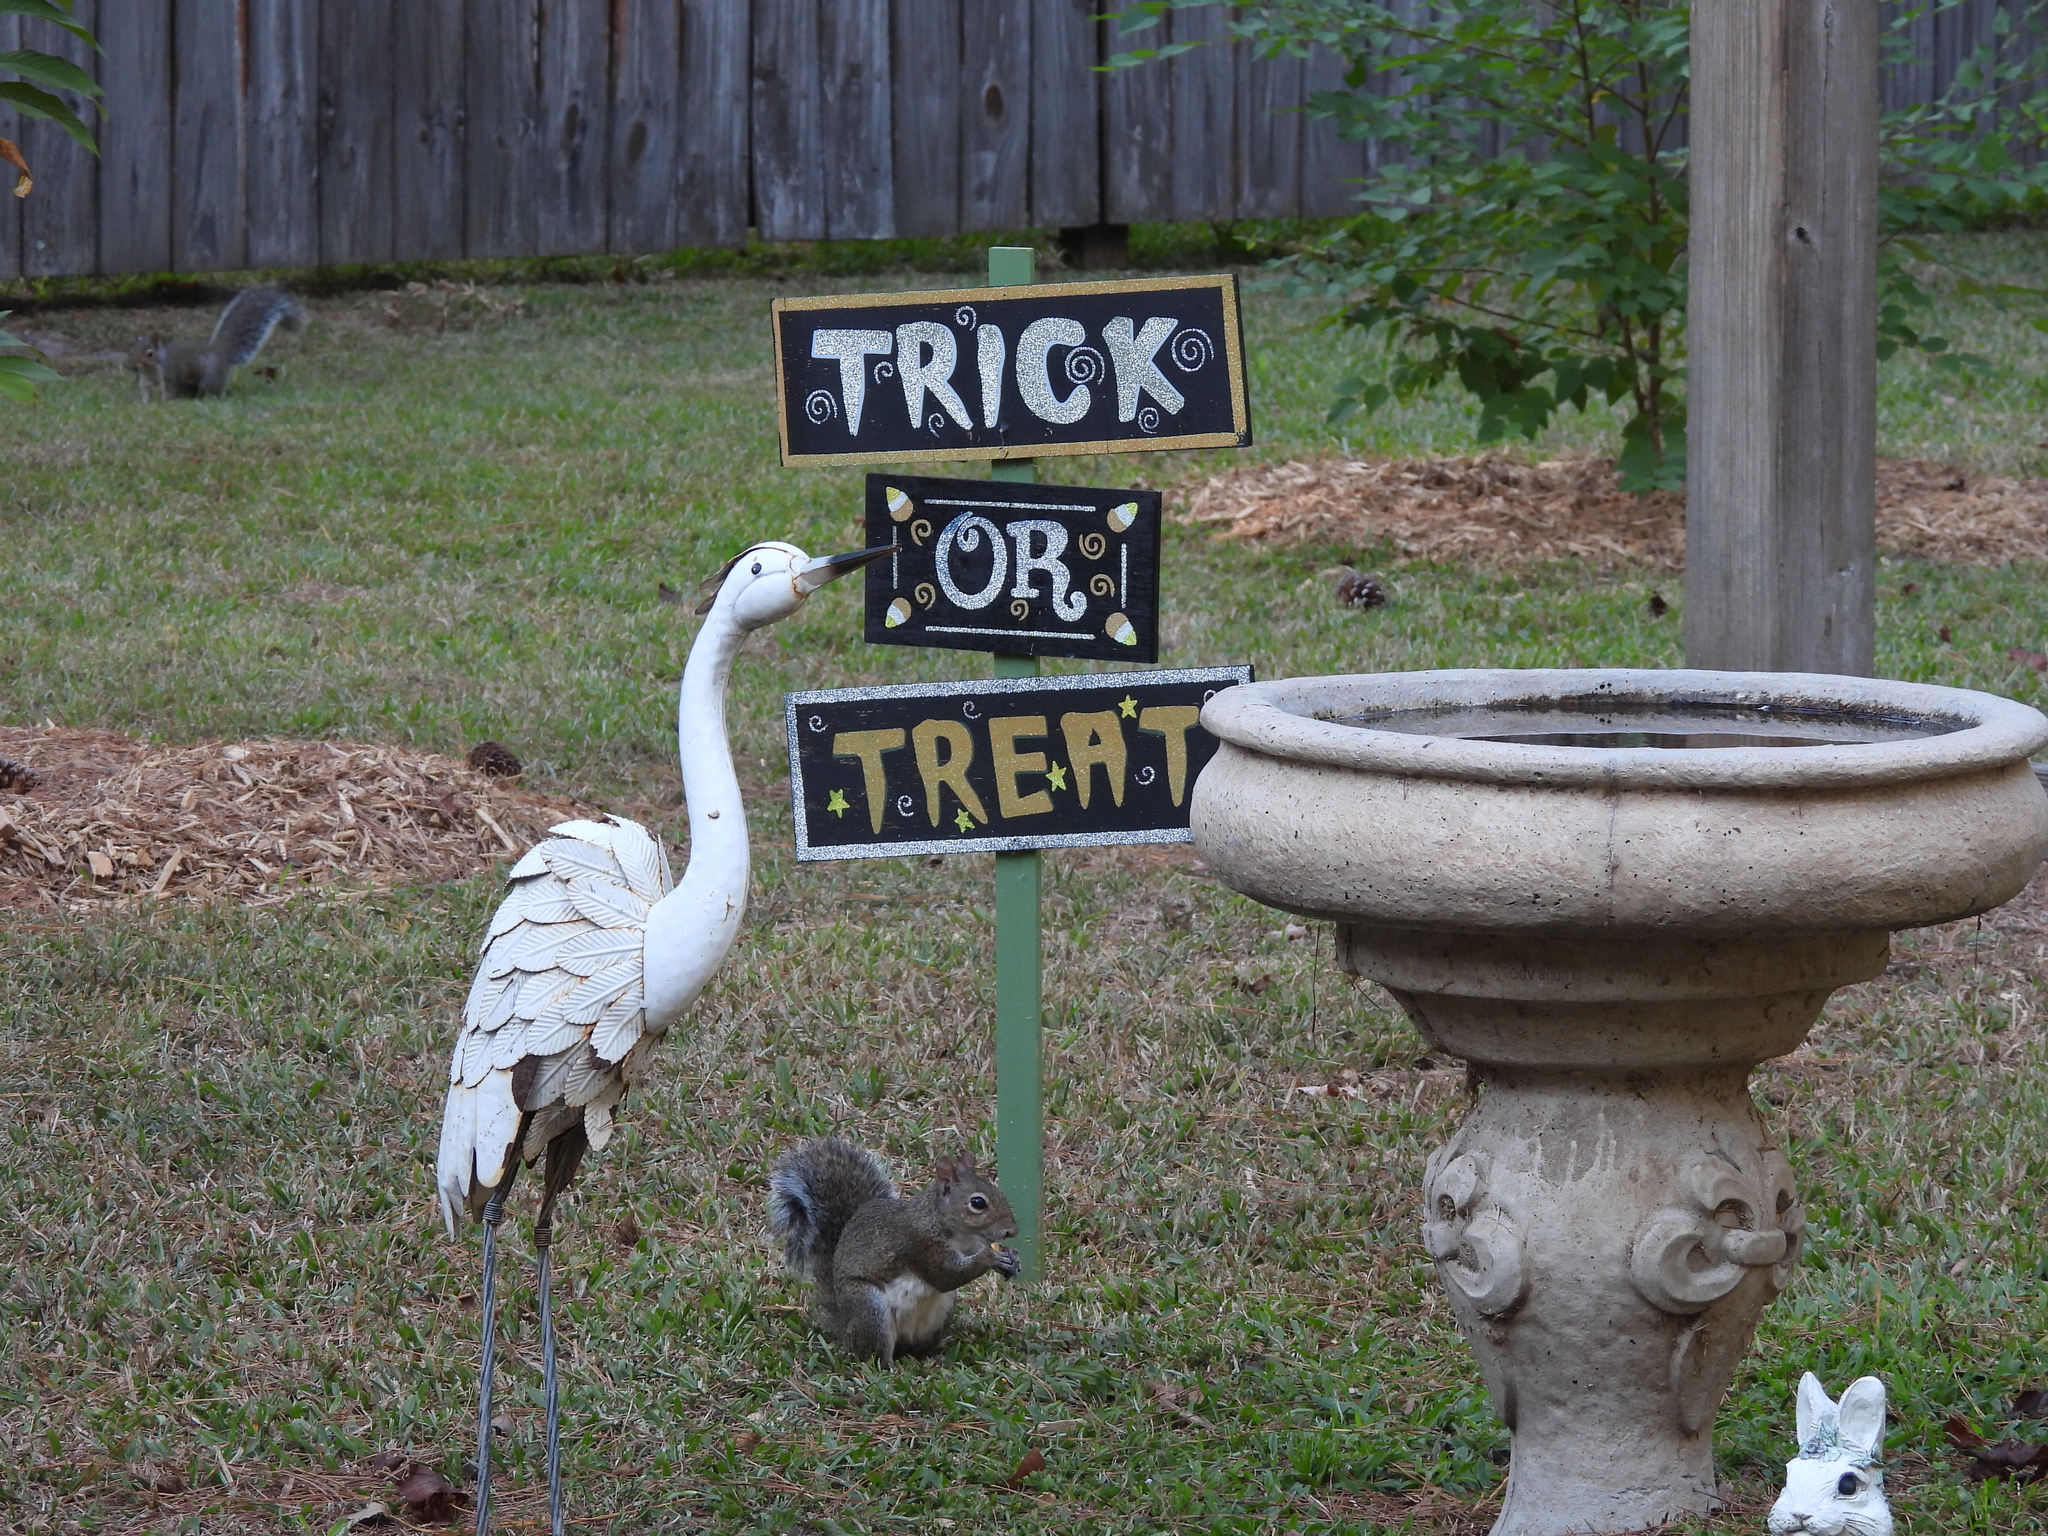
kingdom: Animalia
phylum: Chordata
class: Mammalia
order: Rodentia
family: Sciuridae
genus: Sciurus
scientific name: Sciurus carolinensis
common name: Eastern gray squirrel
